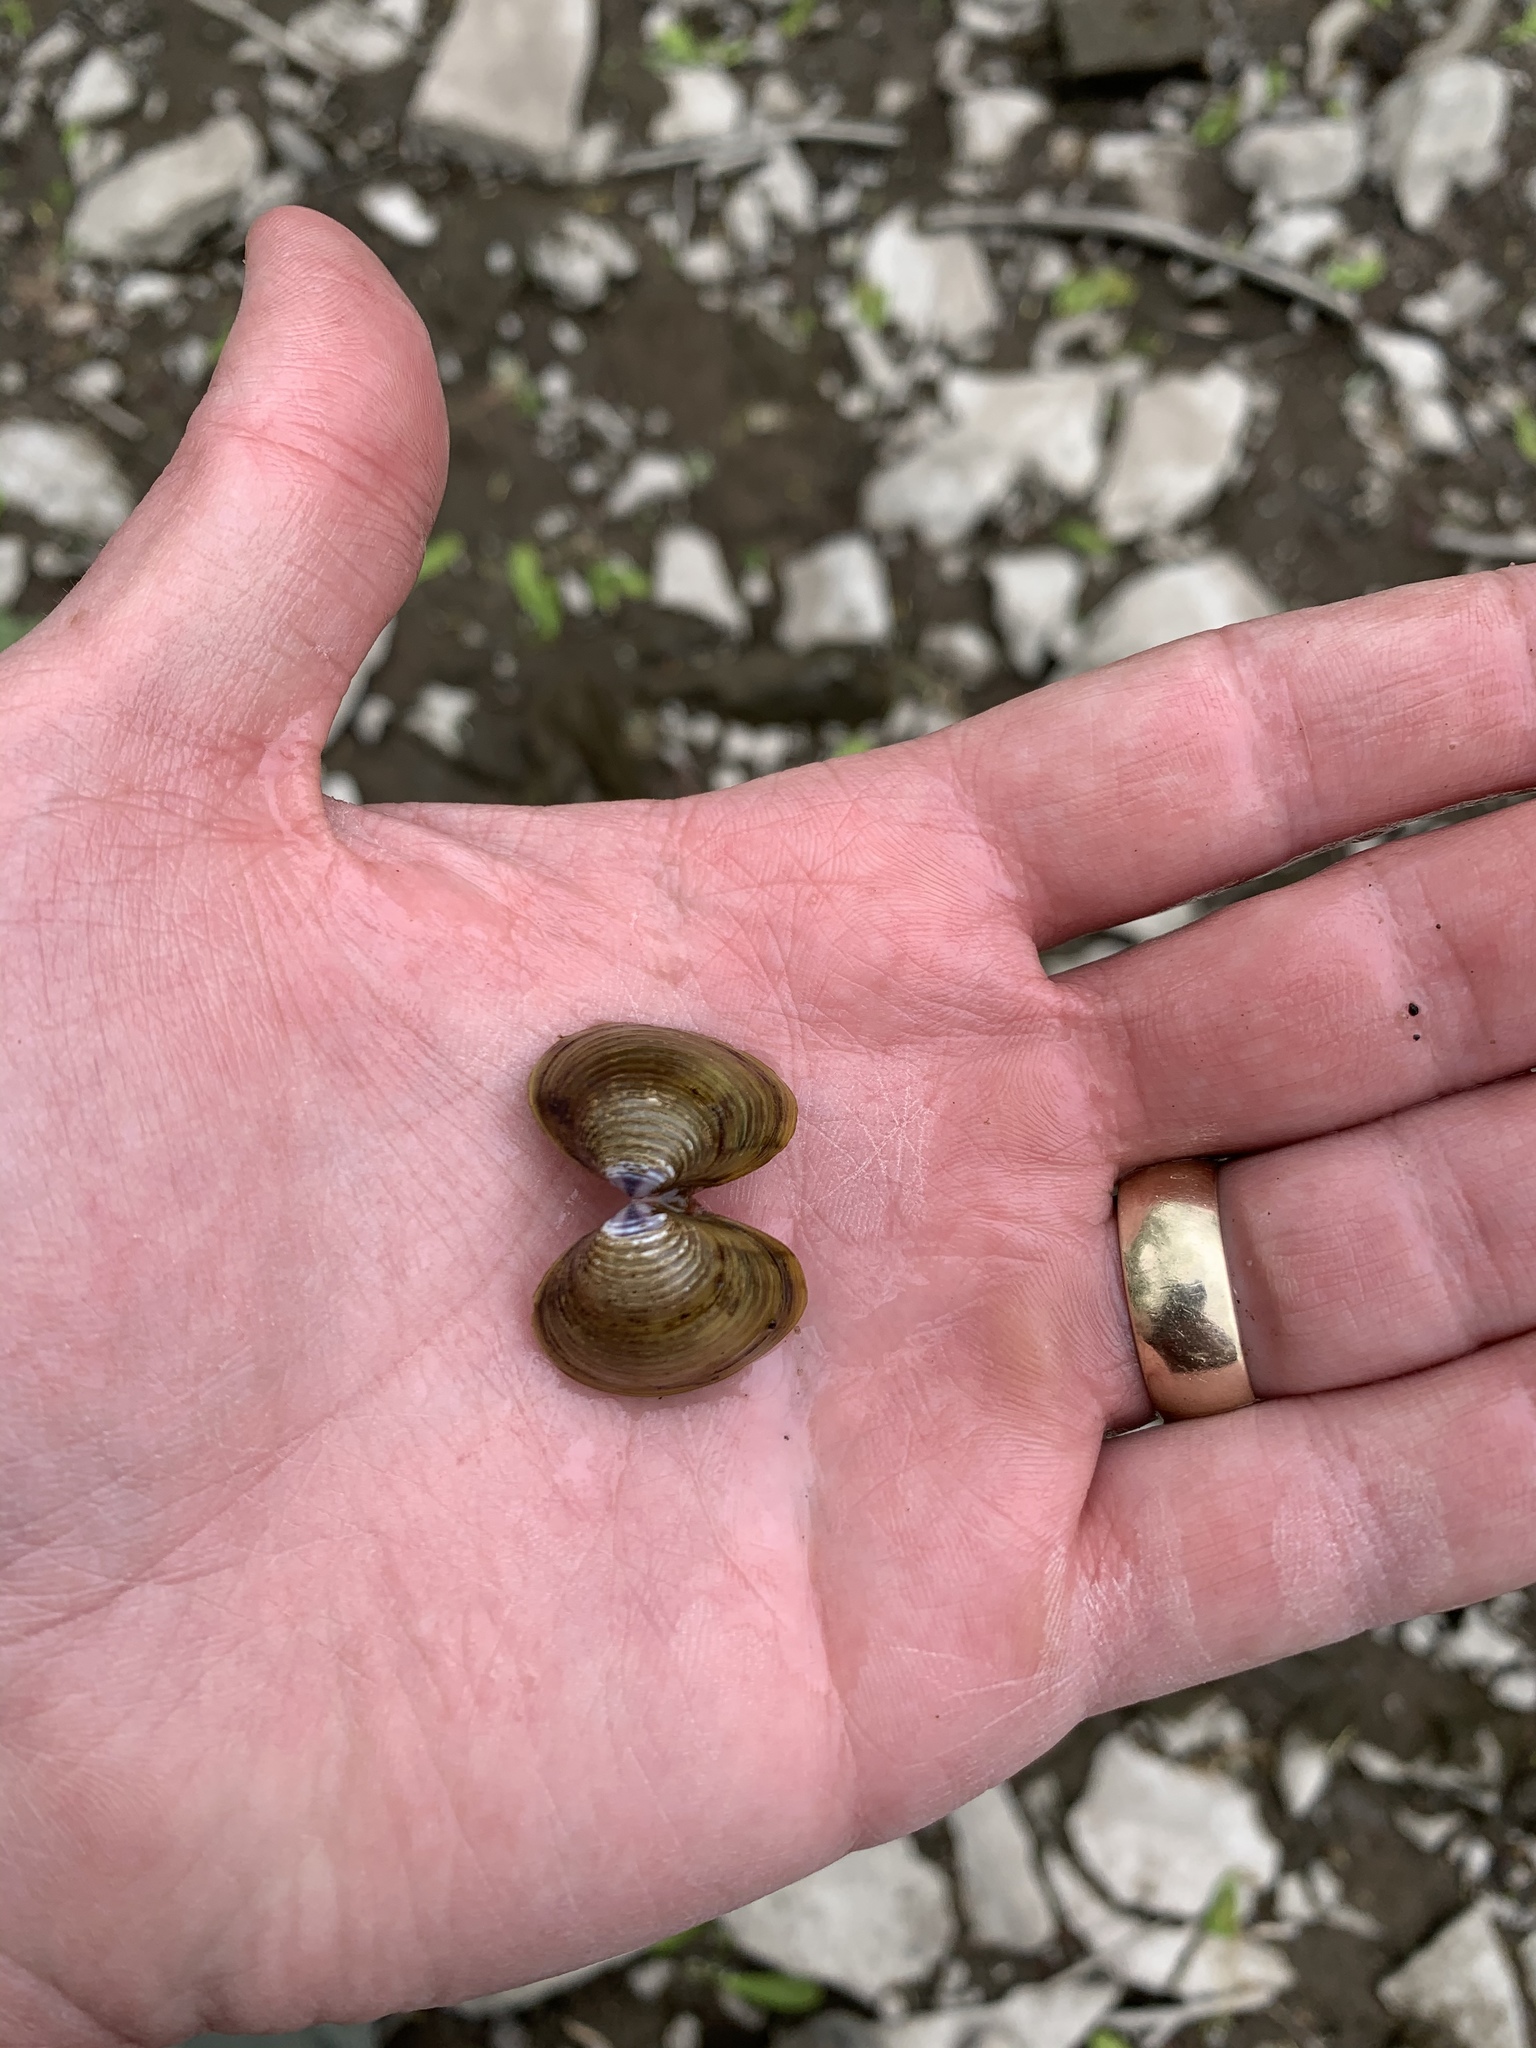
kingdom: Animalia
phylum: Mollusca
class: Bivalvia
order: Venerida
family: Cyrenidae
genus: Corbicula
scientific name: Corbicula fluminea
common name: Asian clam
